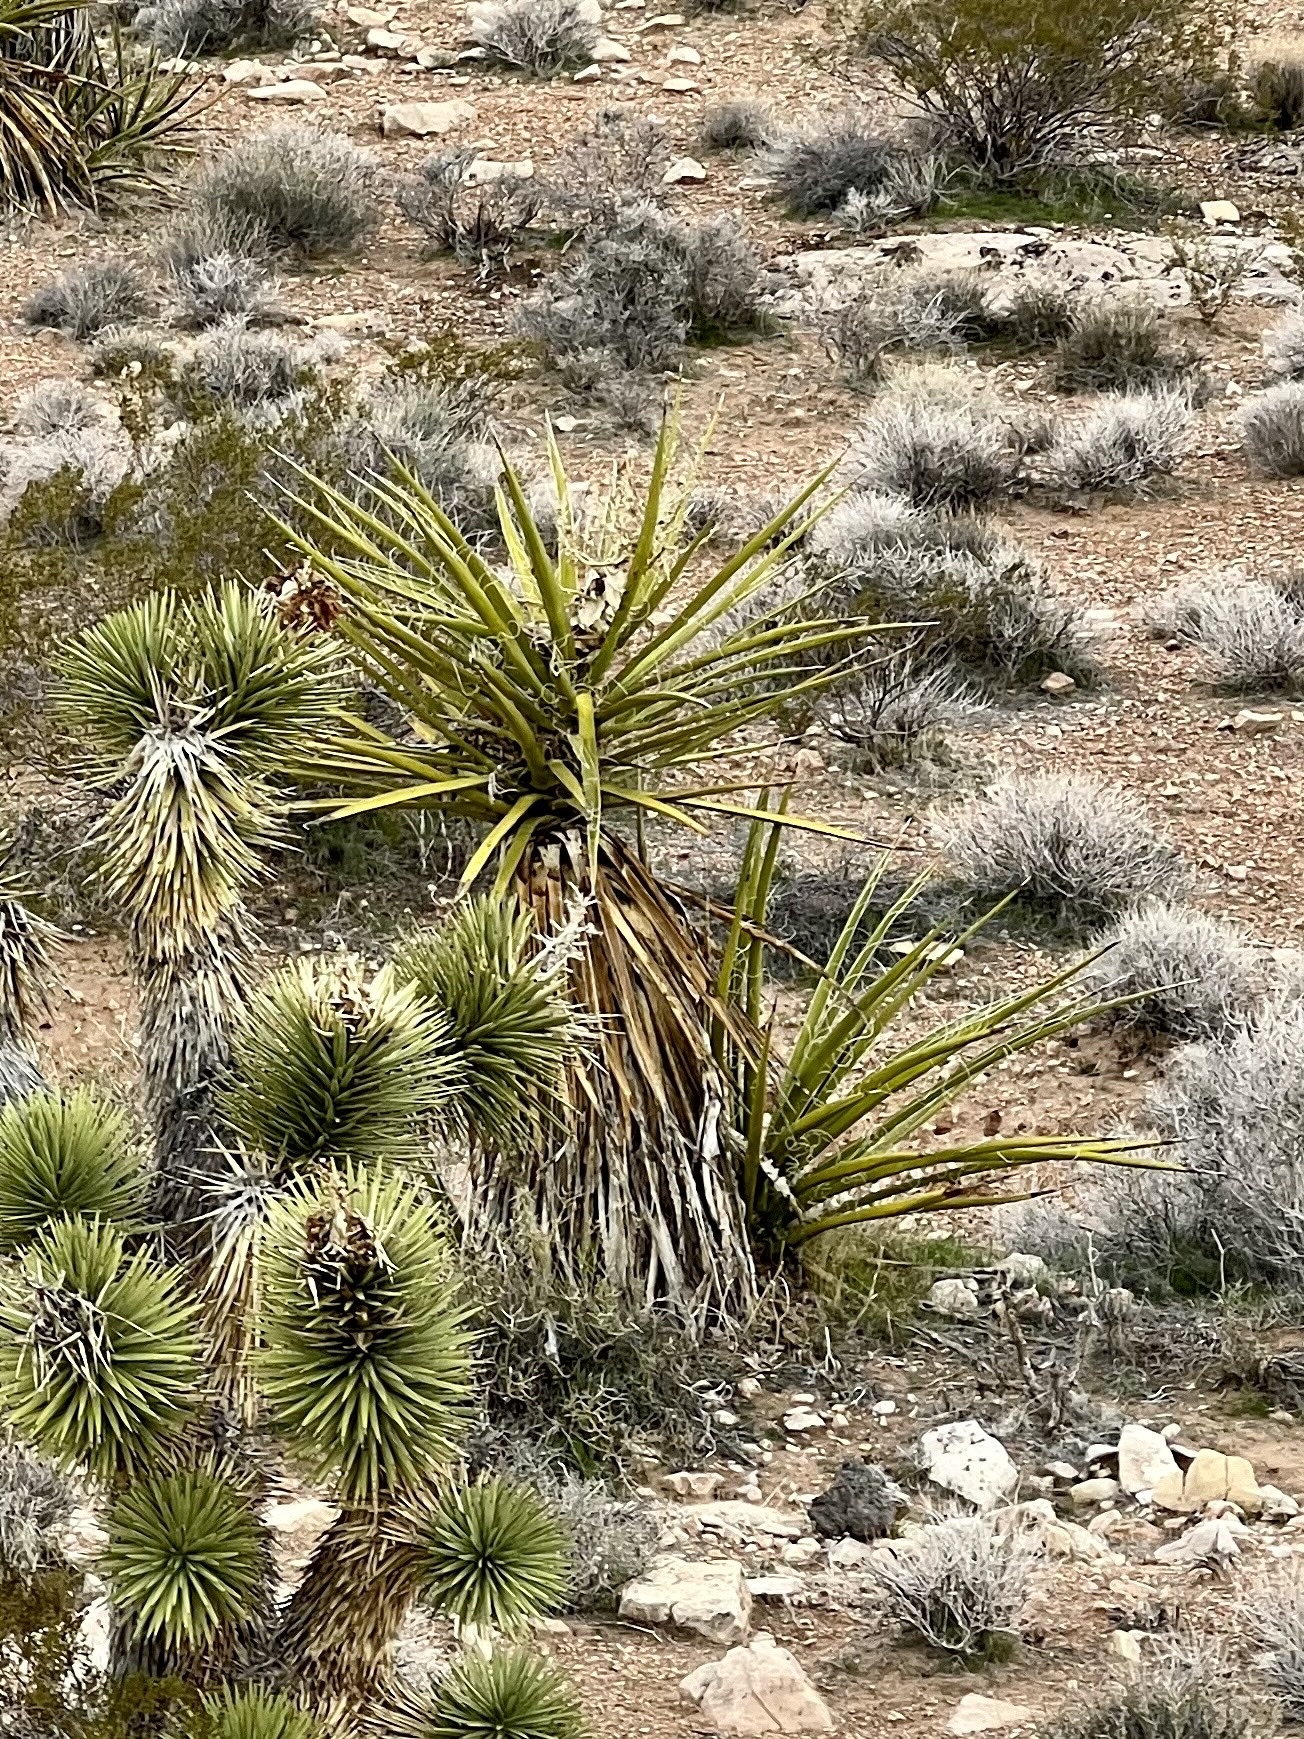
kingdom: Plantae
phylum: Tracheophyta
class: Liliopsida
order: Asparagales
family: Asparagaceae
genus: Yucca
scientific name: Yucca schidigera
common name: Mojave yucca
